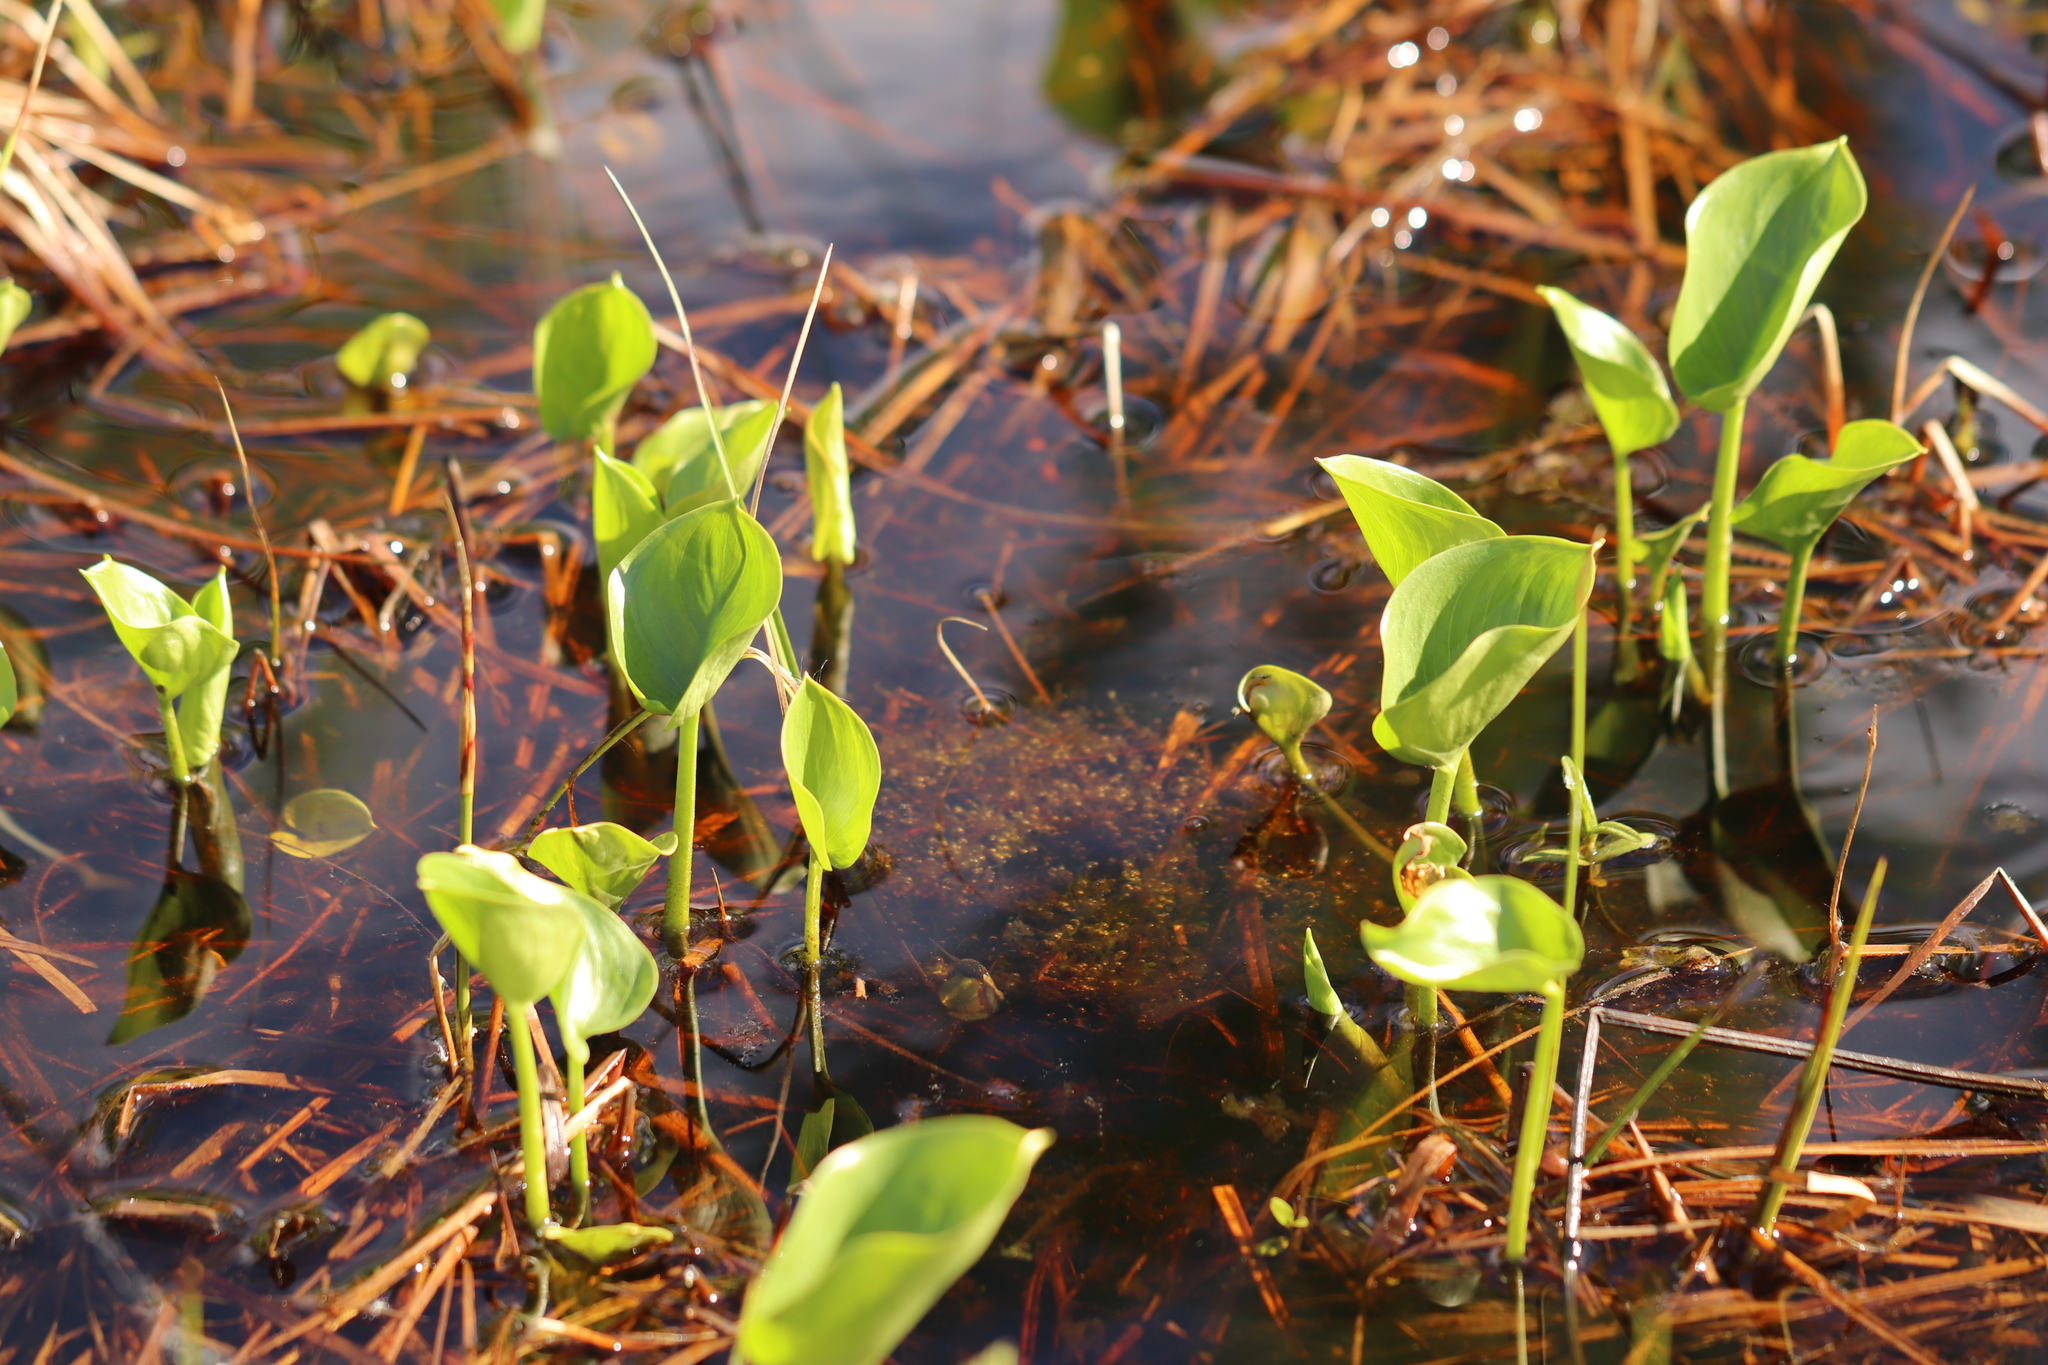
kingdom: Plantae
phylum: Tracheophyta
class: Liliopsida
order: Alismatales
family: Araceae
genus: Calla
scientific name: Calla palustris
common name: Bog arum
